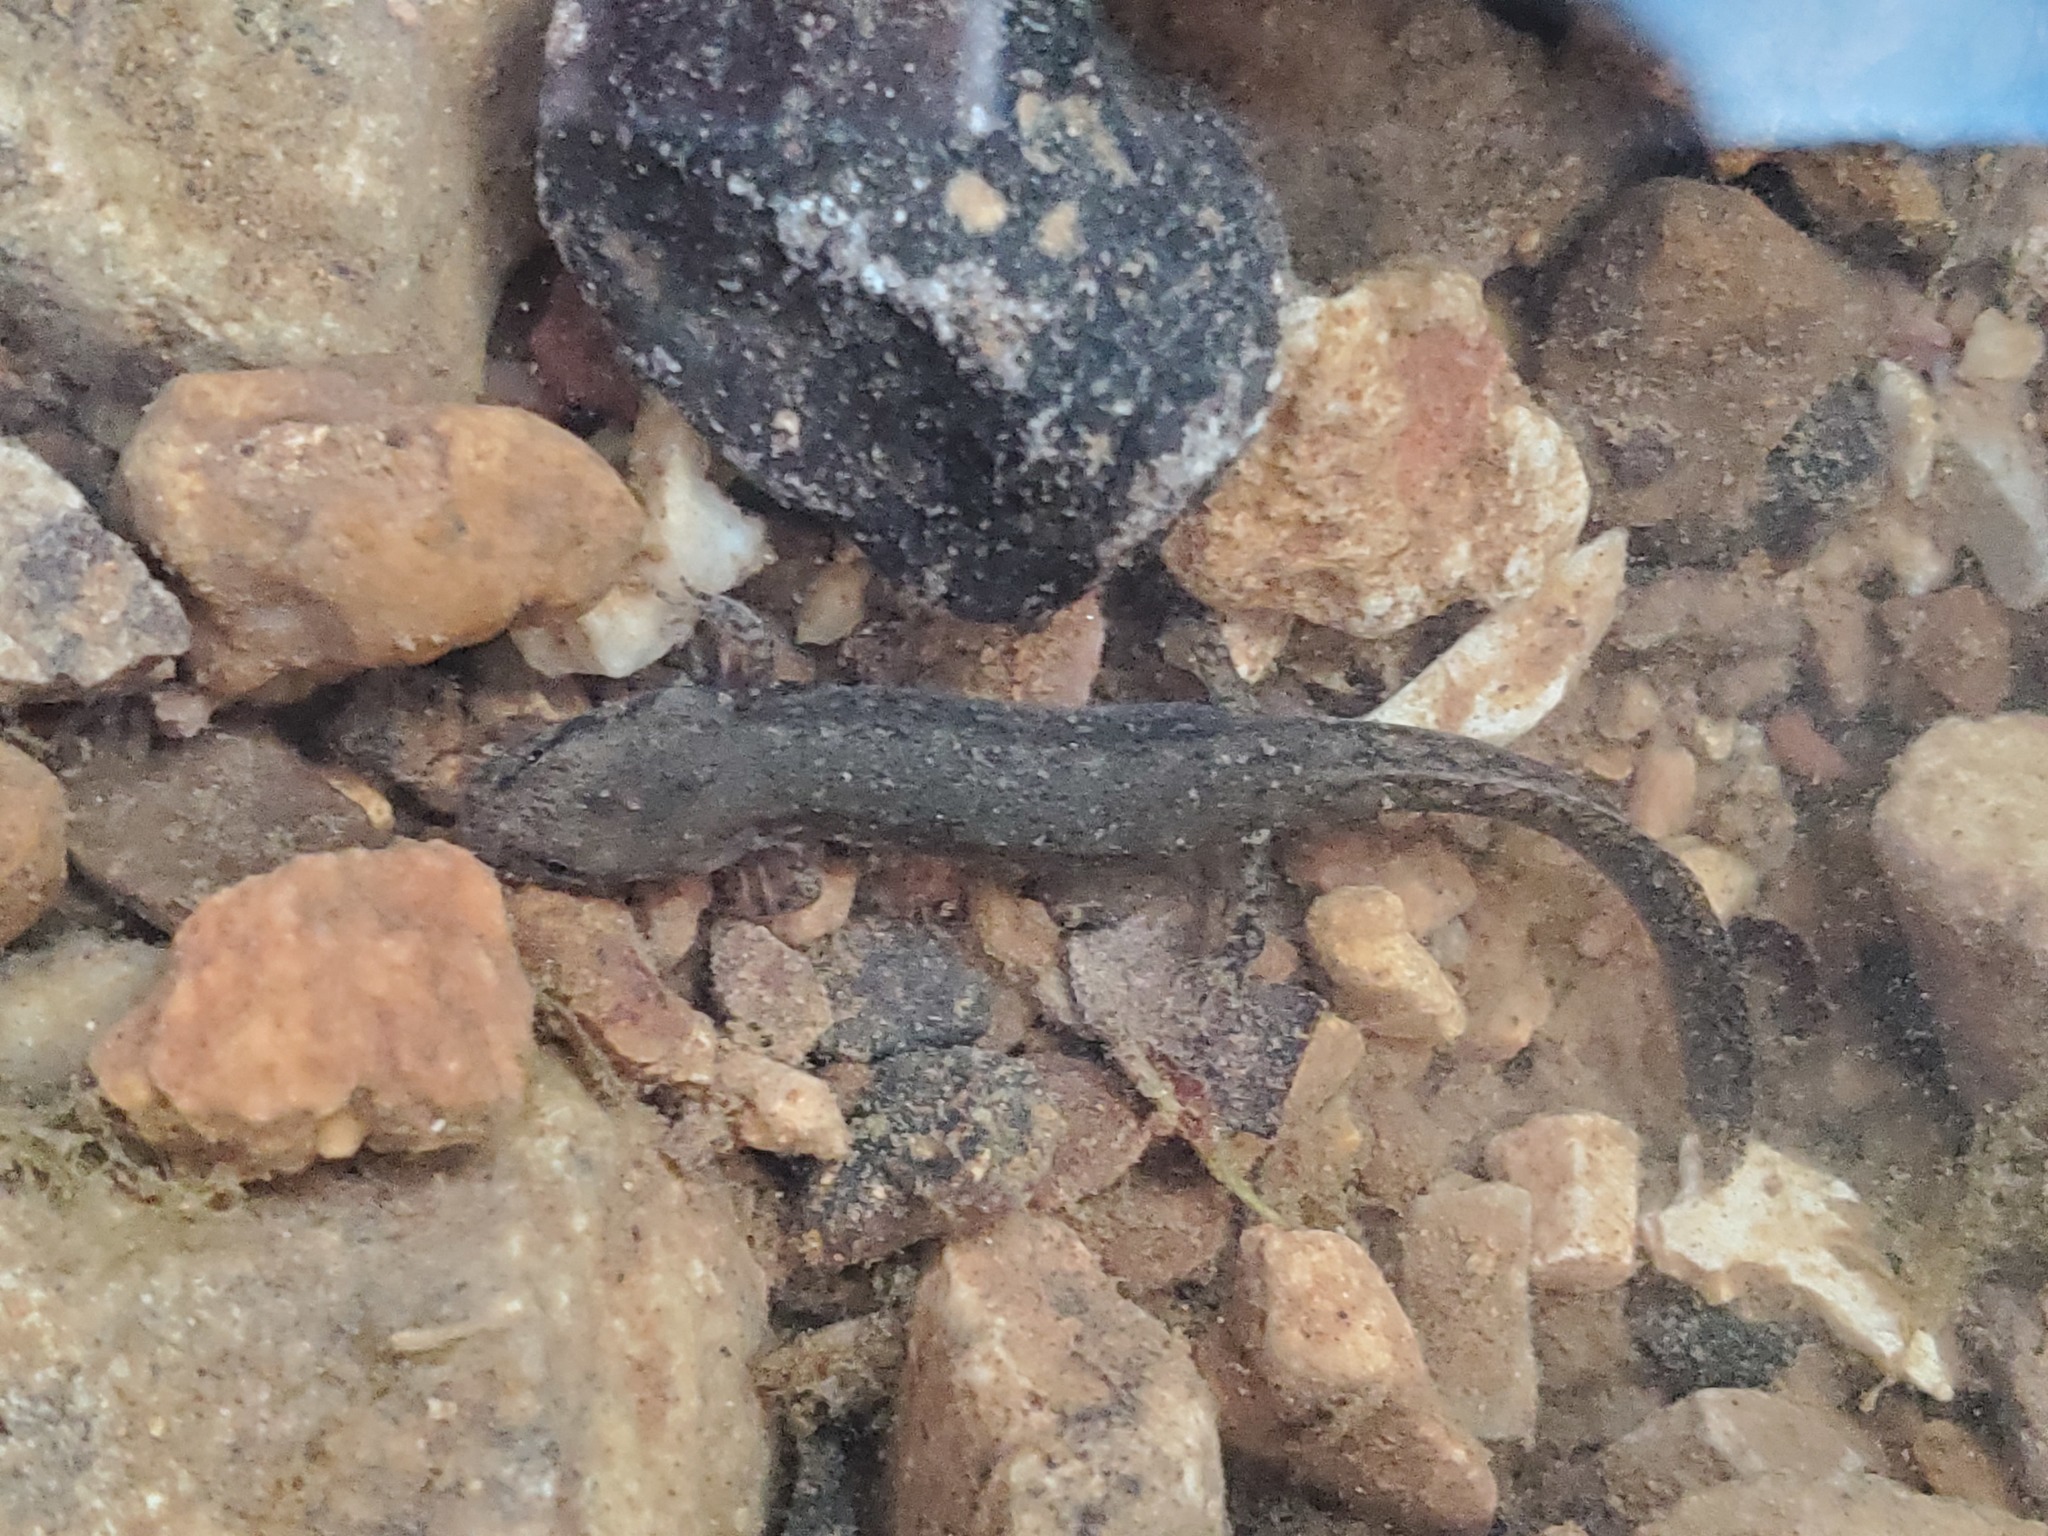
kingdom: Animalia
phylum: Chordata
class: Amphibia
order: Caudata
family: Plethodontidae
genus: Eurycea
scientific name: Eurycea cirrigera
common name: Southern two-lined salamander
